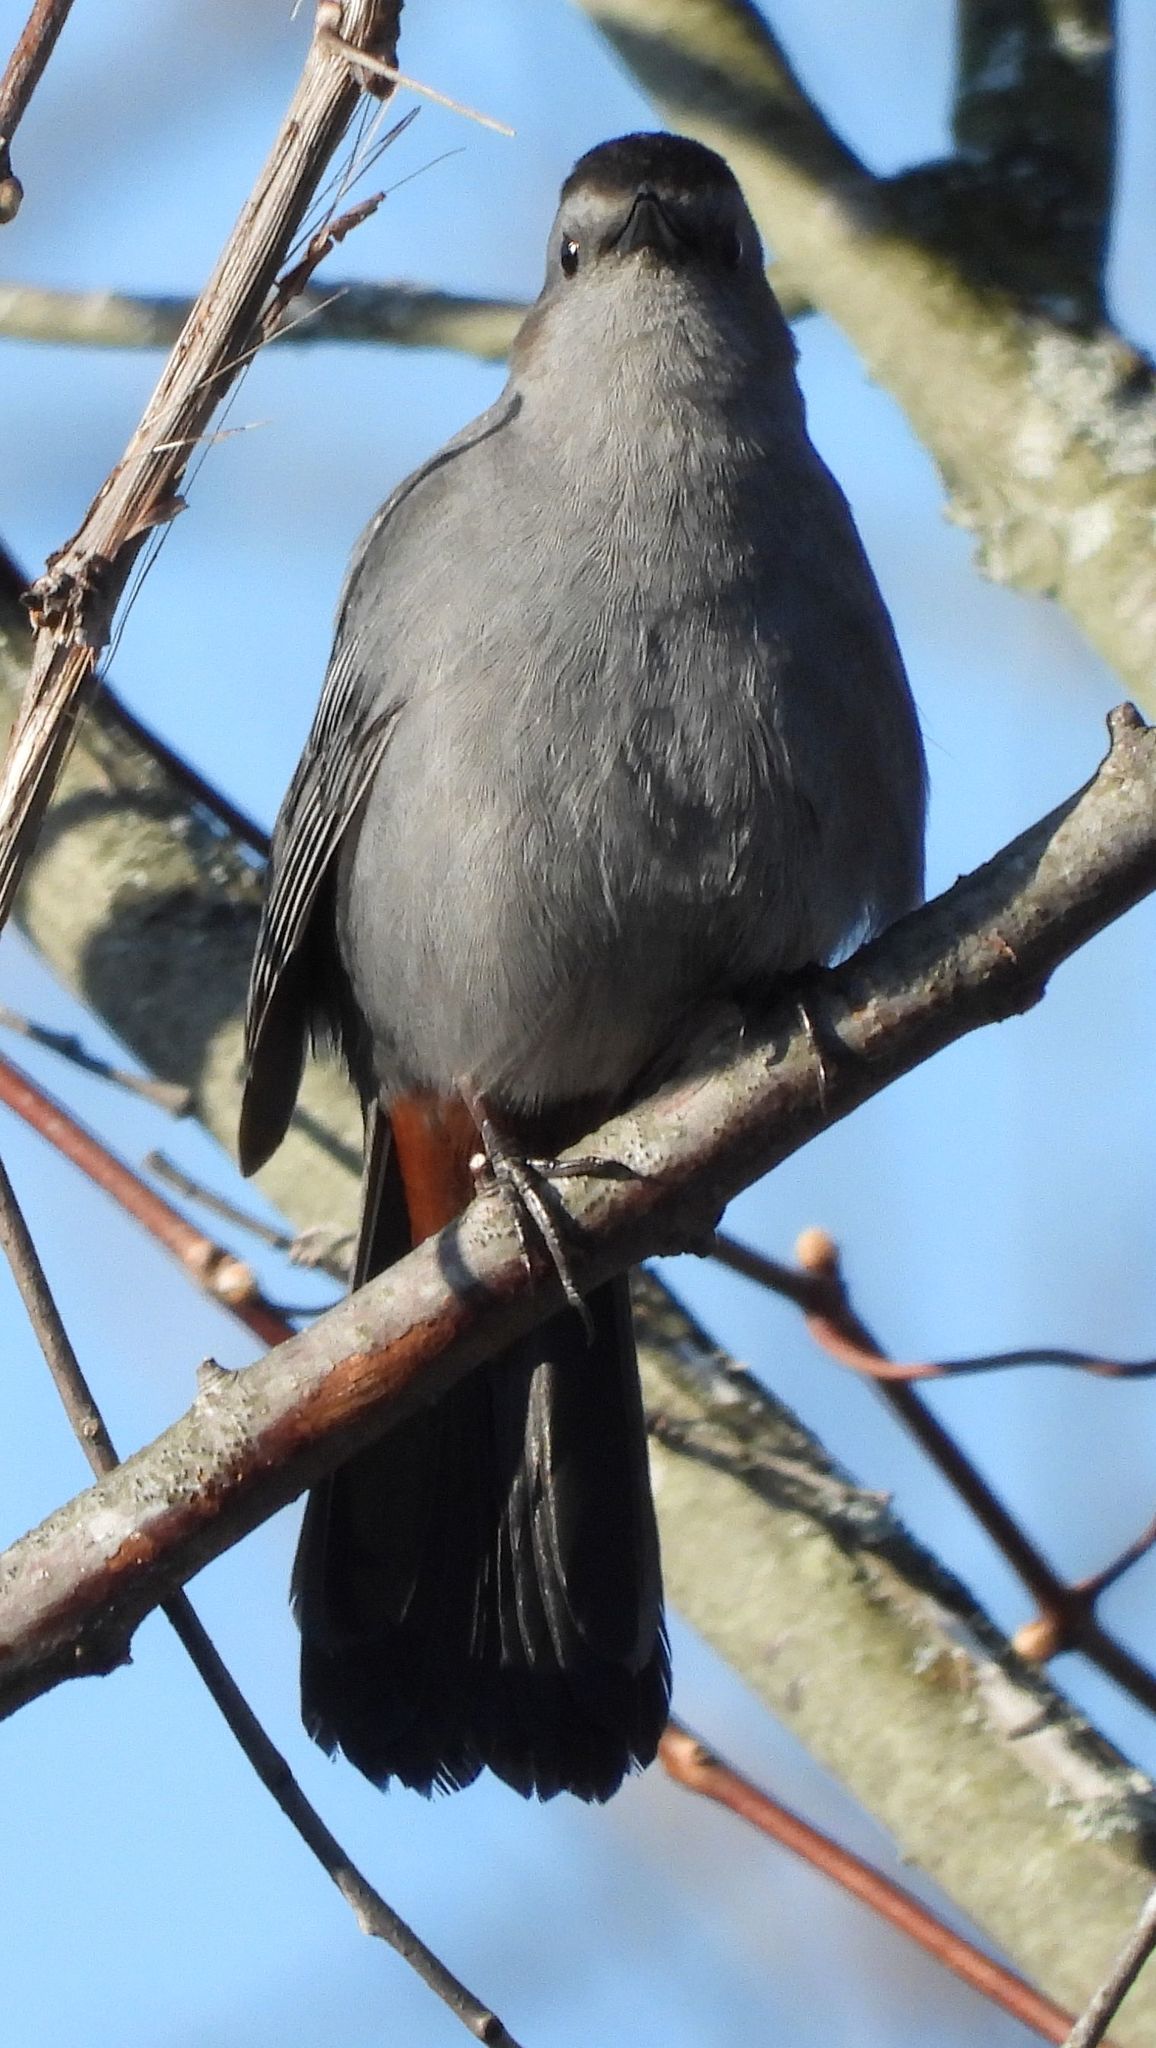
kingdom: Animalia
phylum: Chordata
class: Aves
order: Passeriformes
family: Mimidae
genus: Dumetella
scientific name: Dumetella carolinensis
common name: Gray catbird
